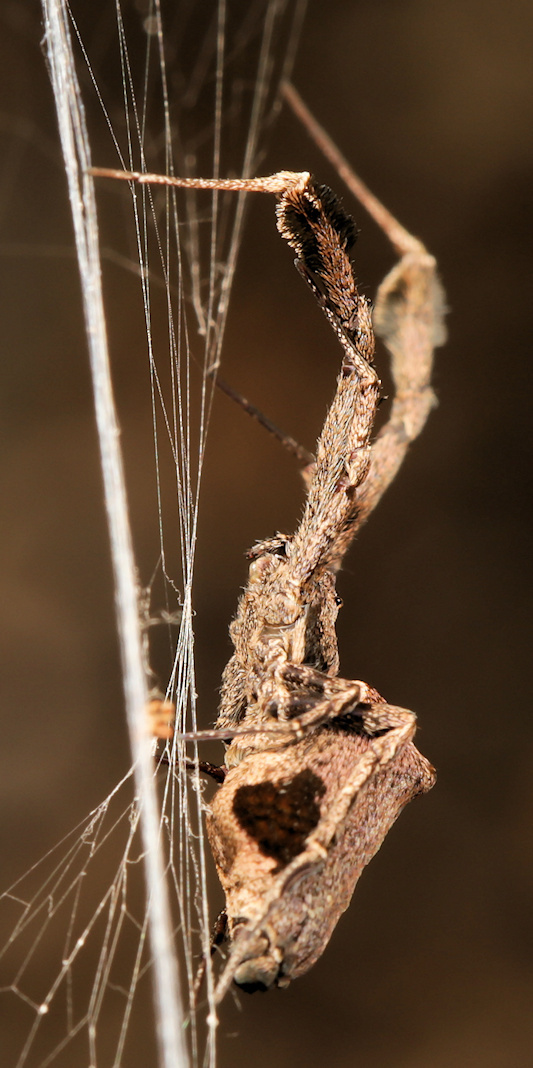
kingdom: Animalia
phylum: Arthropoda
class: Arachnida
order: Araneae
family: Uloboridae
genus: Uloborus
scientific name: Uloborus plumipes
